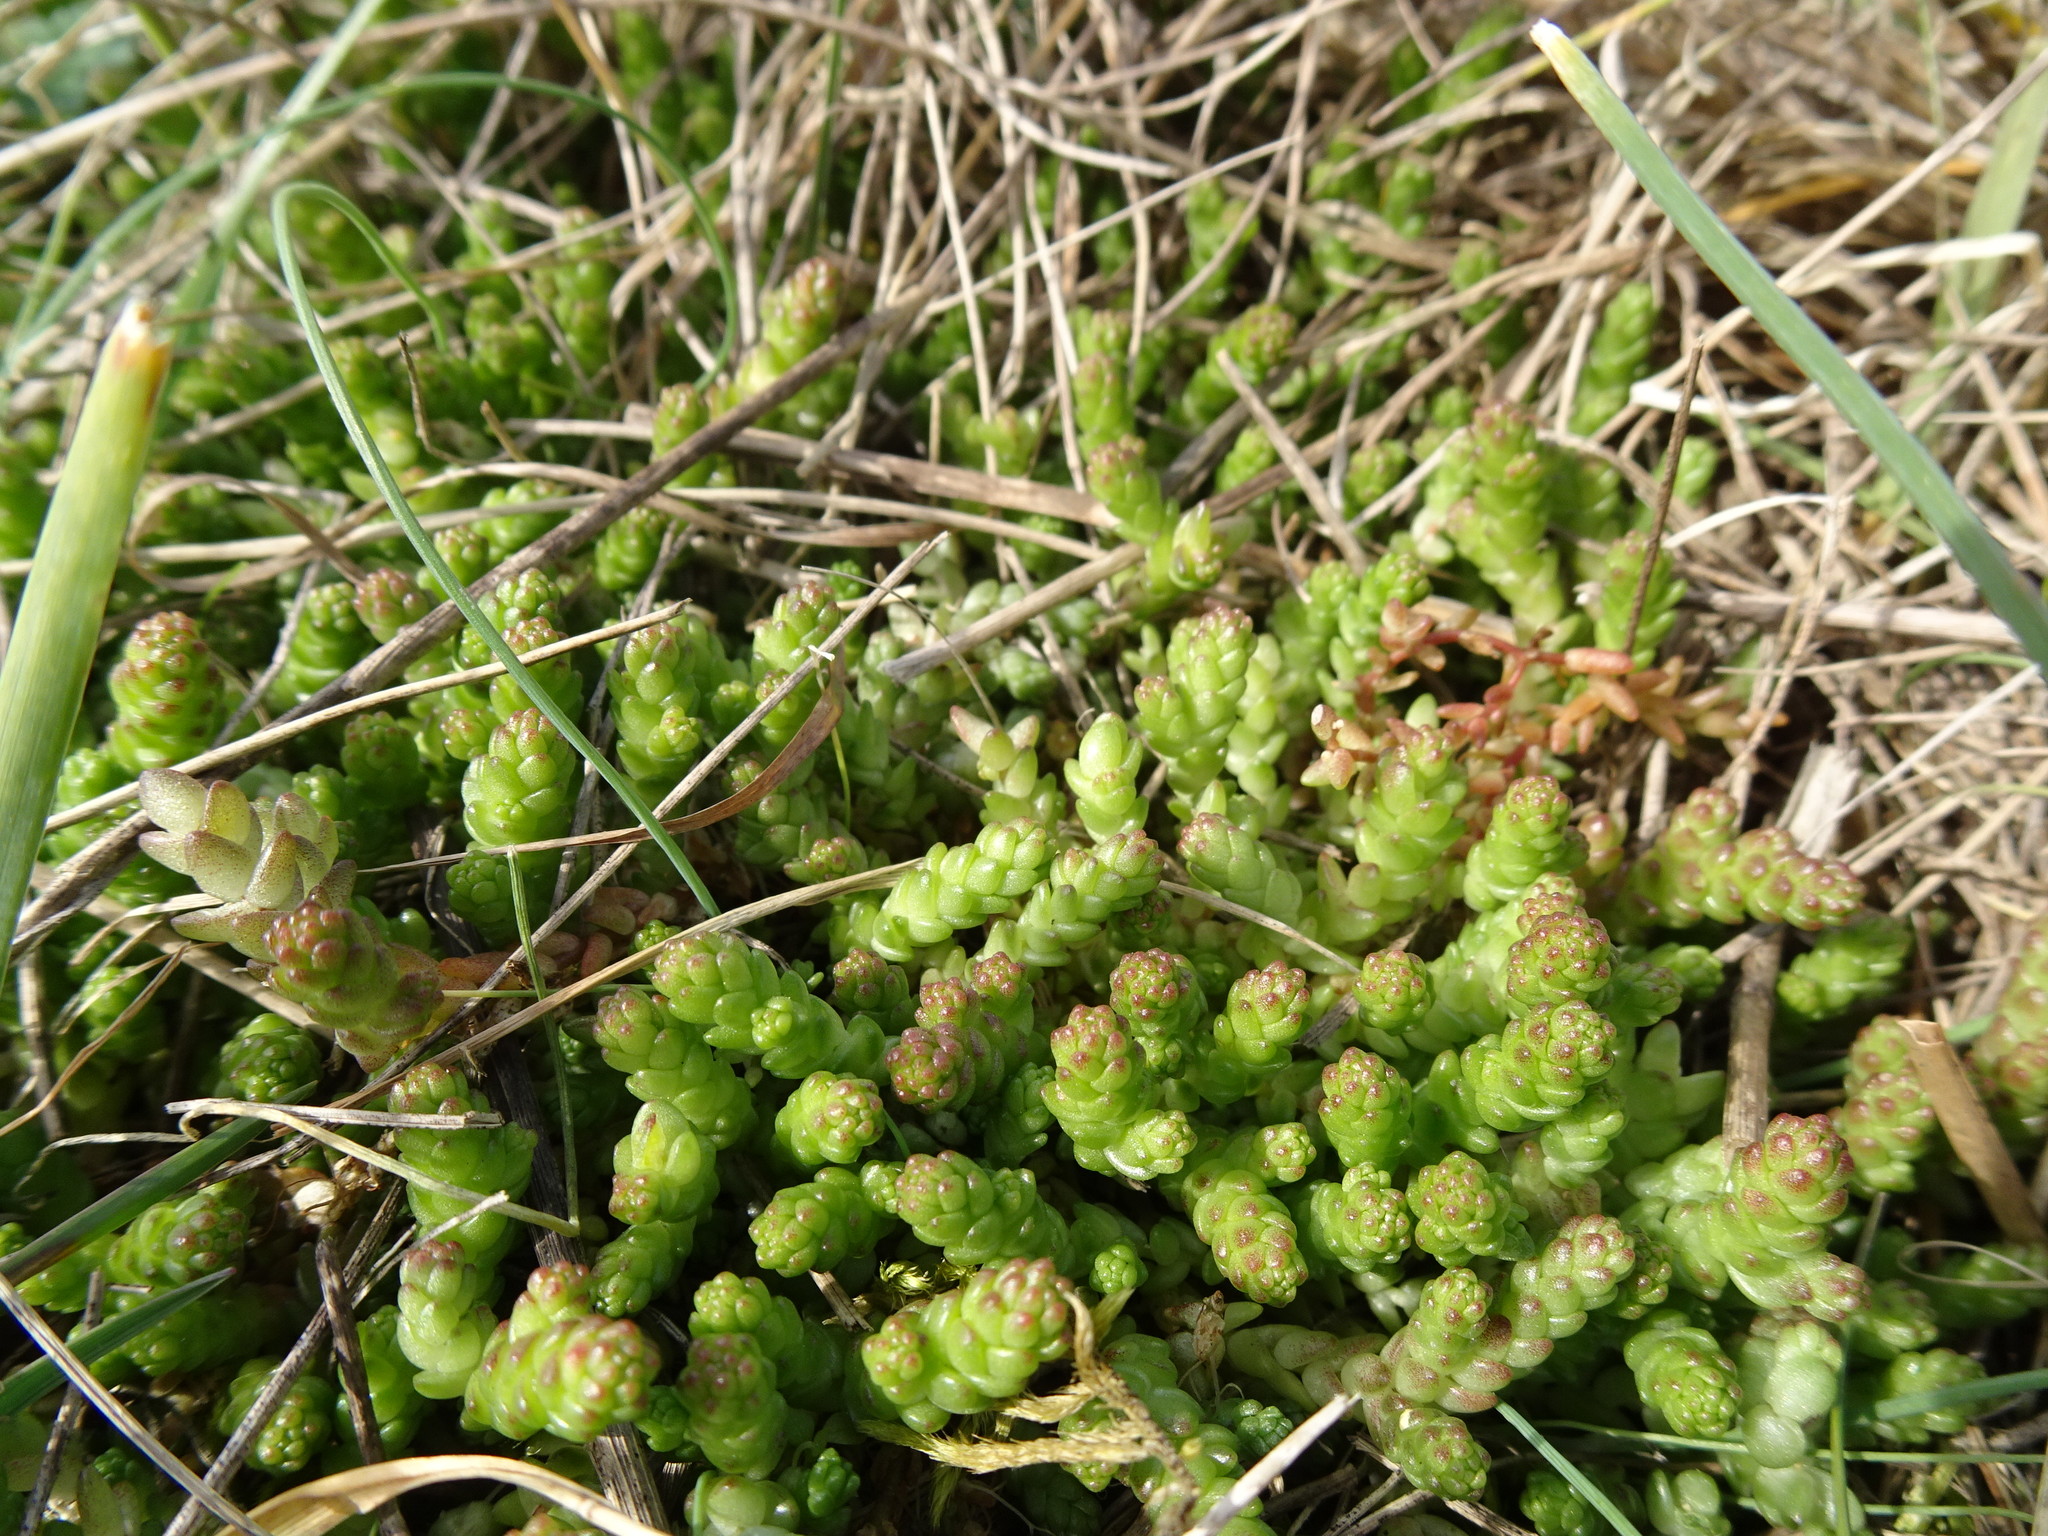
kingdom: Plantae
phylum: Tracheophyta
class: Magnoliopsida
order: Saxifragales
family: Crassulaceae
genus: Sedum
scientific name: Sedum acre
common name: Biting stonecrop
